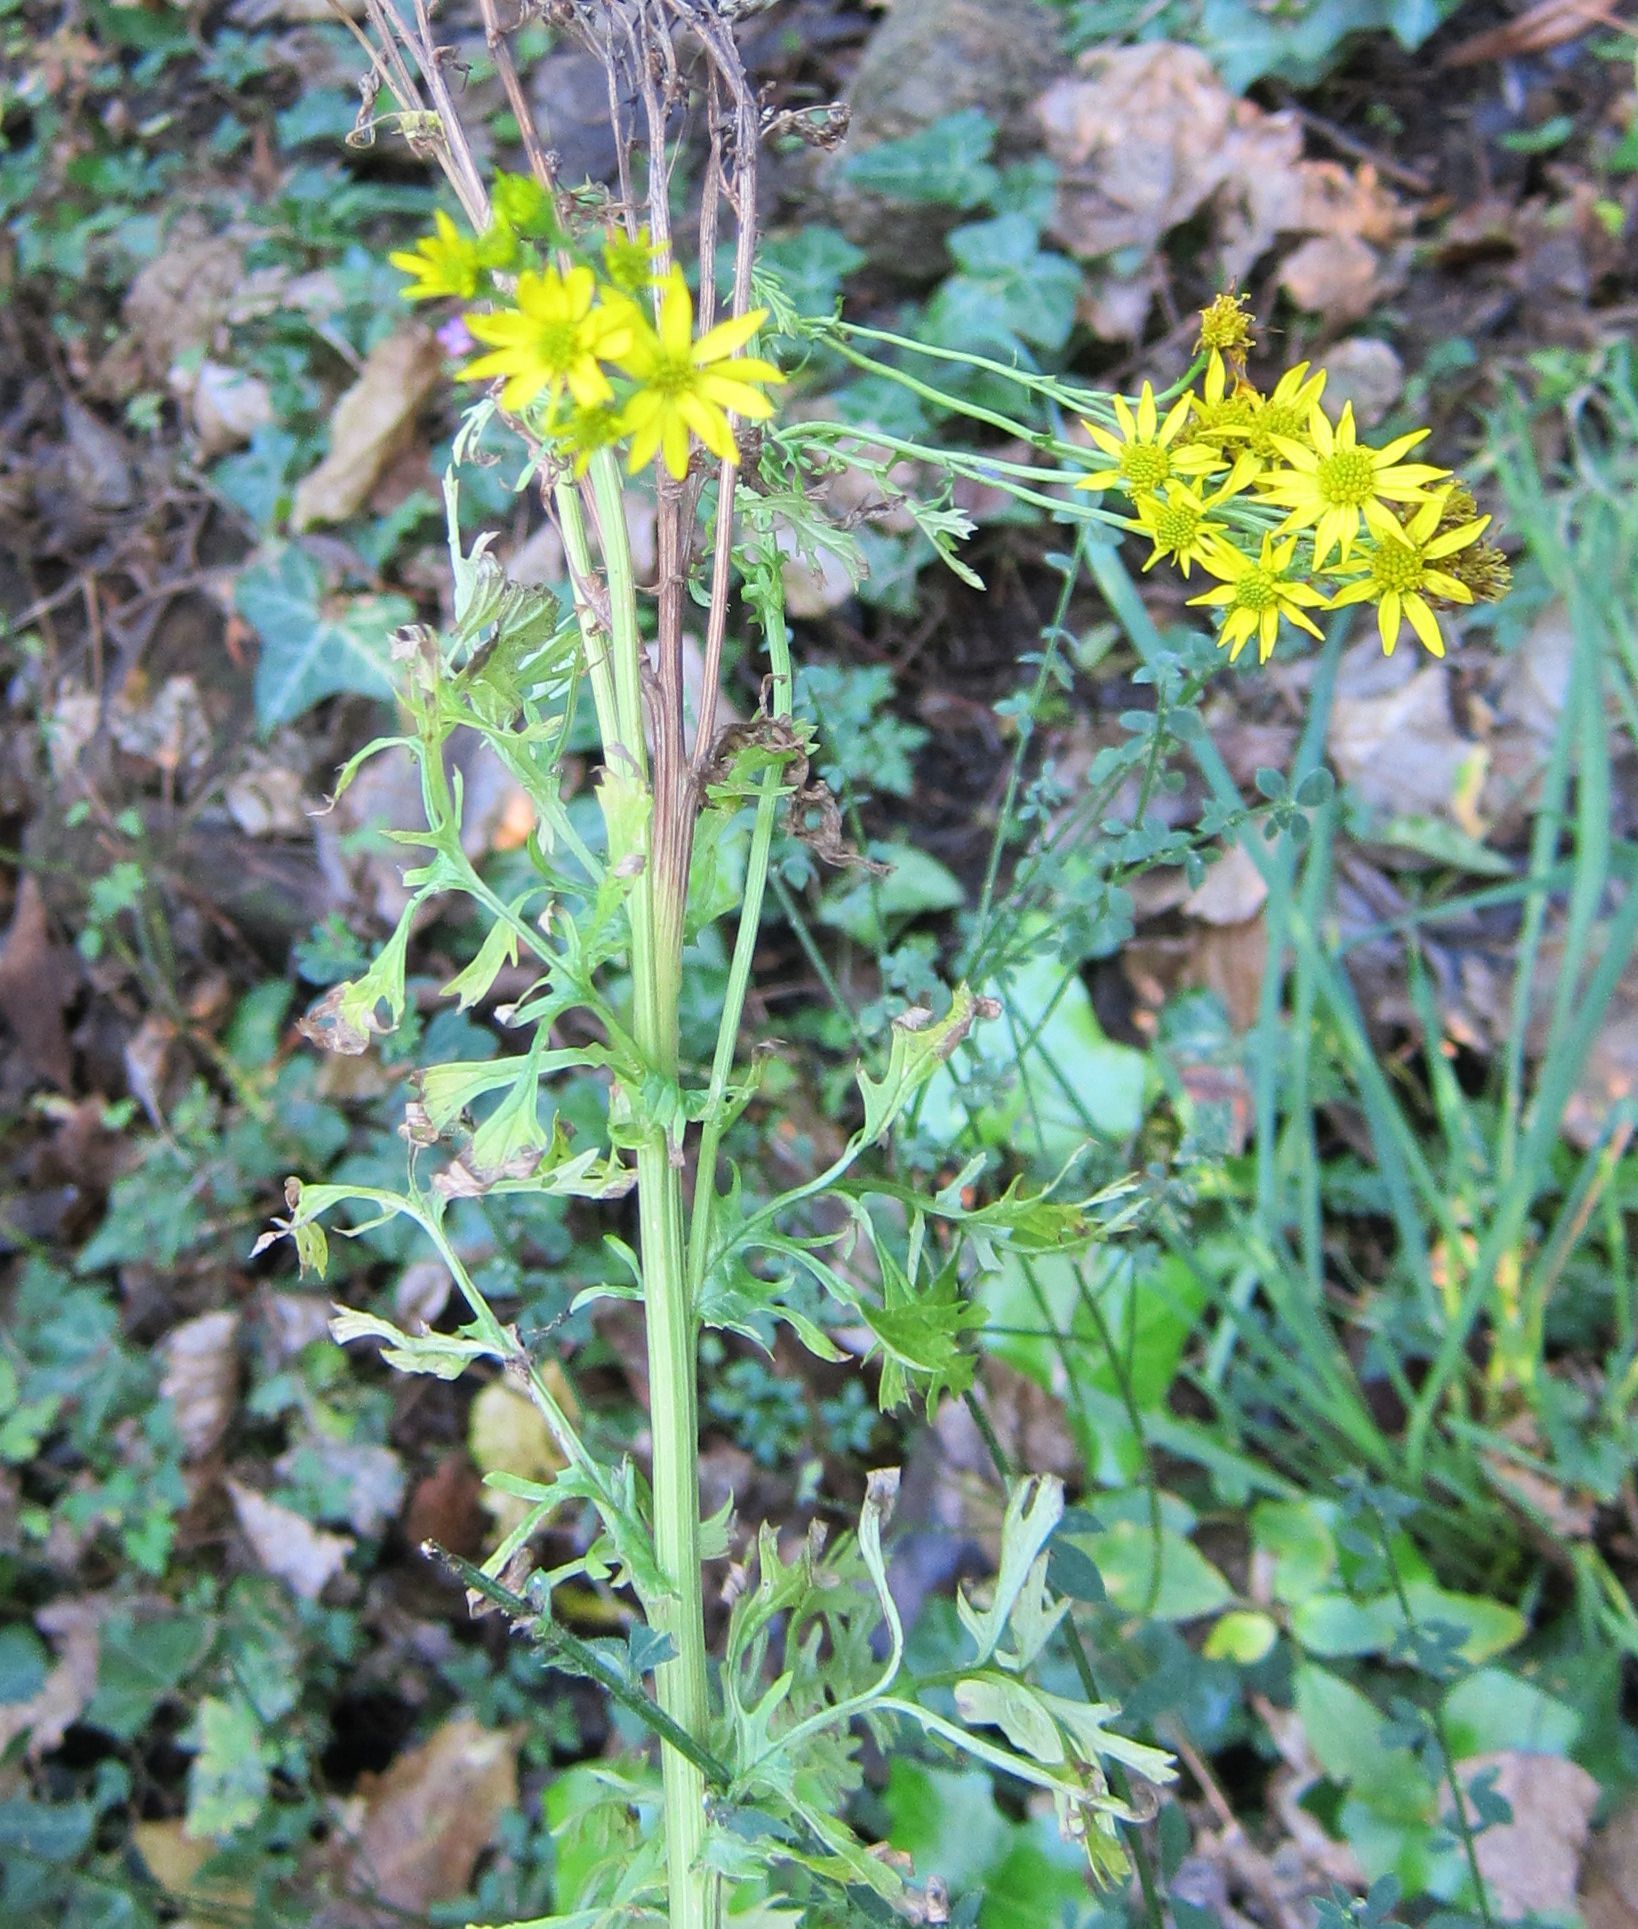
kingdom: Plantae
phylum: Tracheophyta
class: Magnoliopsida
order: Asterales
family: Asteraceae
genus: Jacobaea
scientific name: Jacobaea vulgaris
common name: Stinking willie
